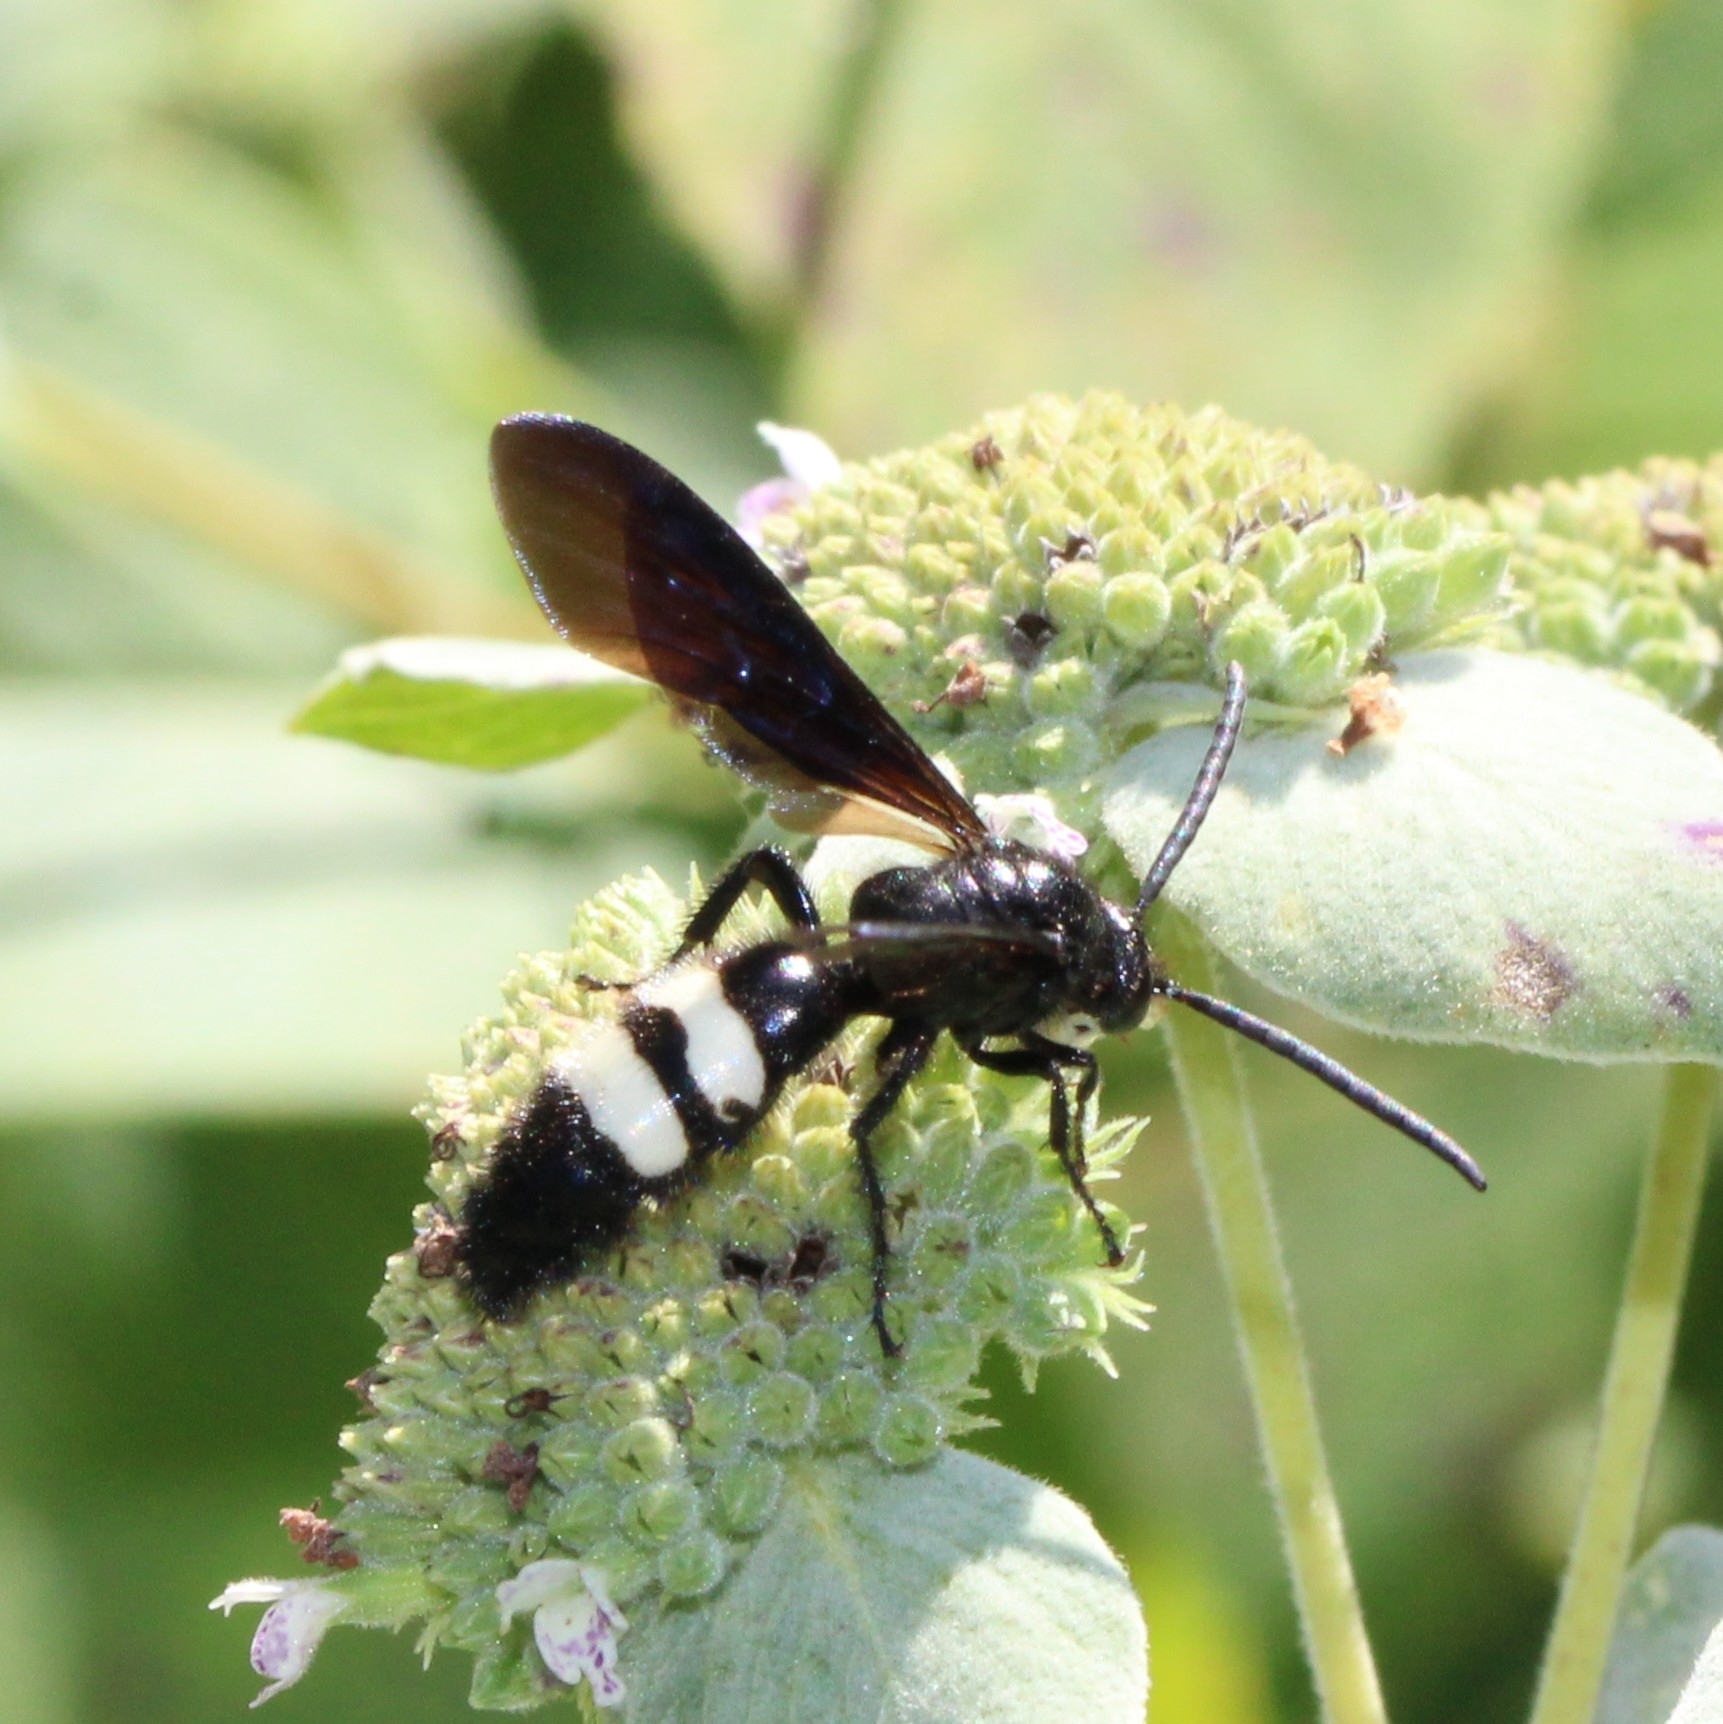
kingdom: Animalia
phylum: Arthropoda
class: Insecta
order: Hymenoptera
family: Scoliidae
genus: Scolia
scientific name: Scolia bicincta
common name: Double-banded scoliid wasp
